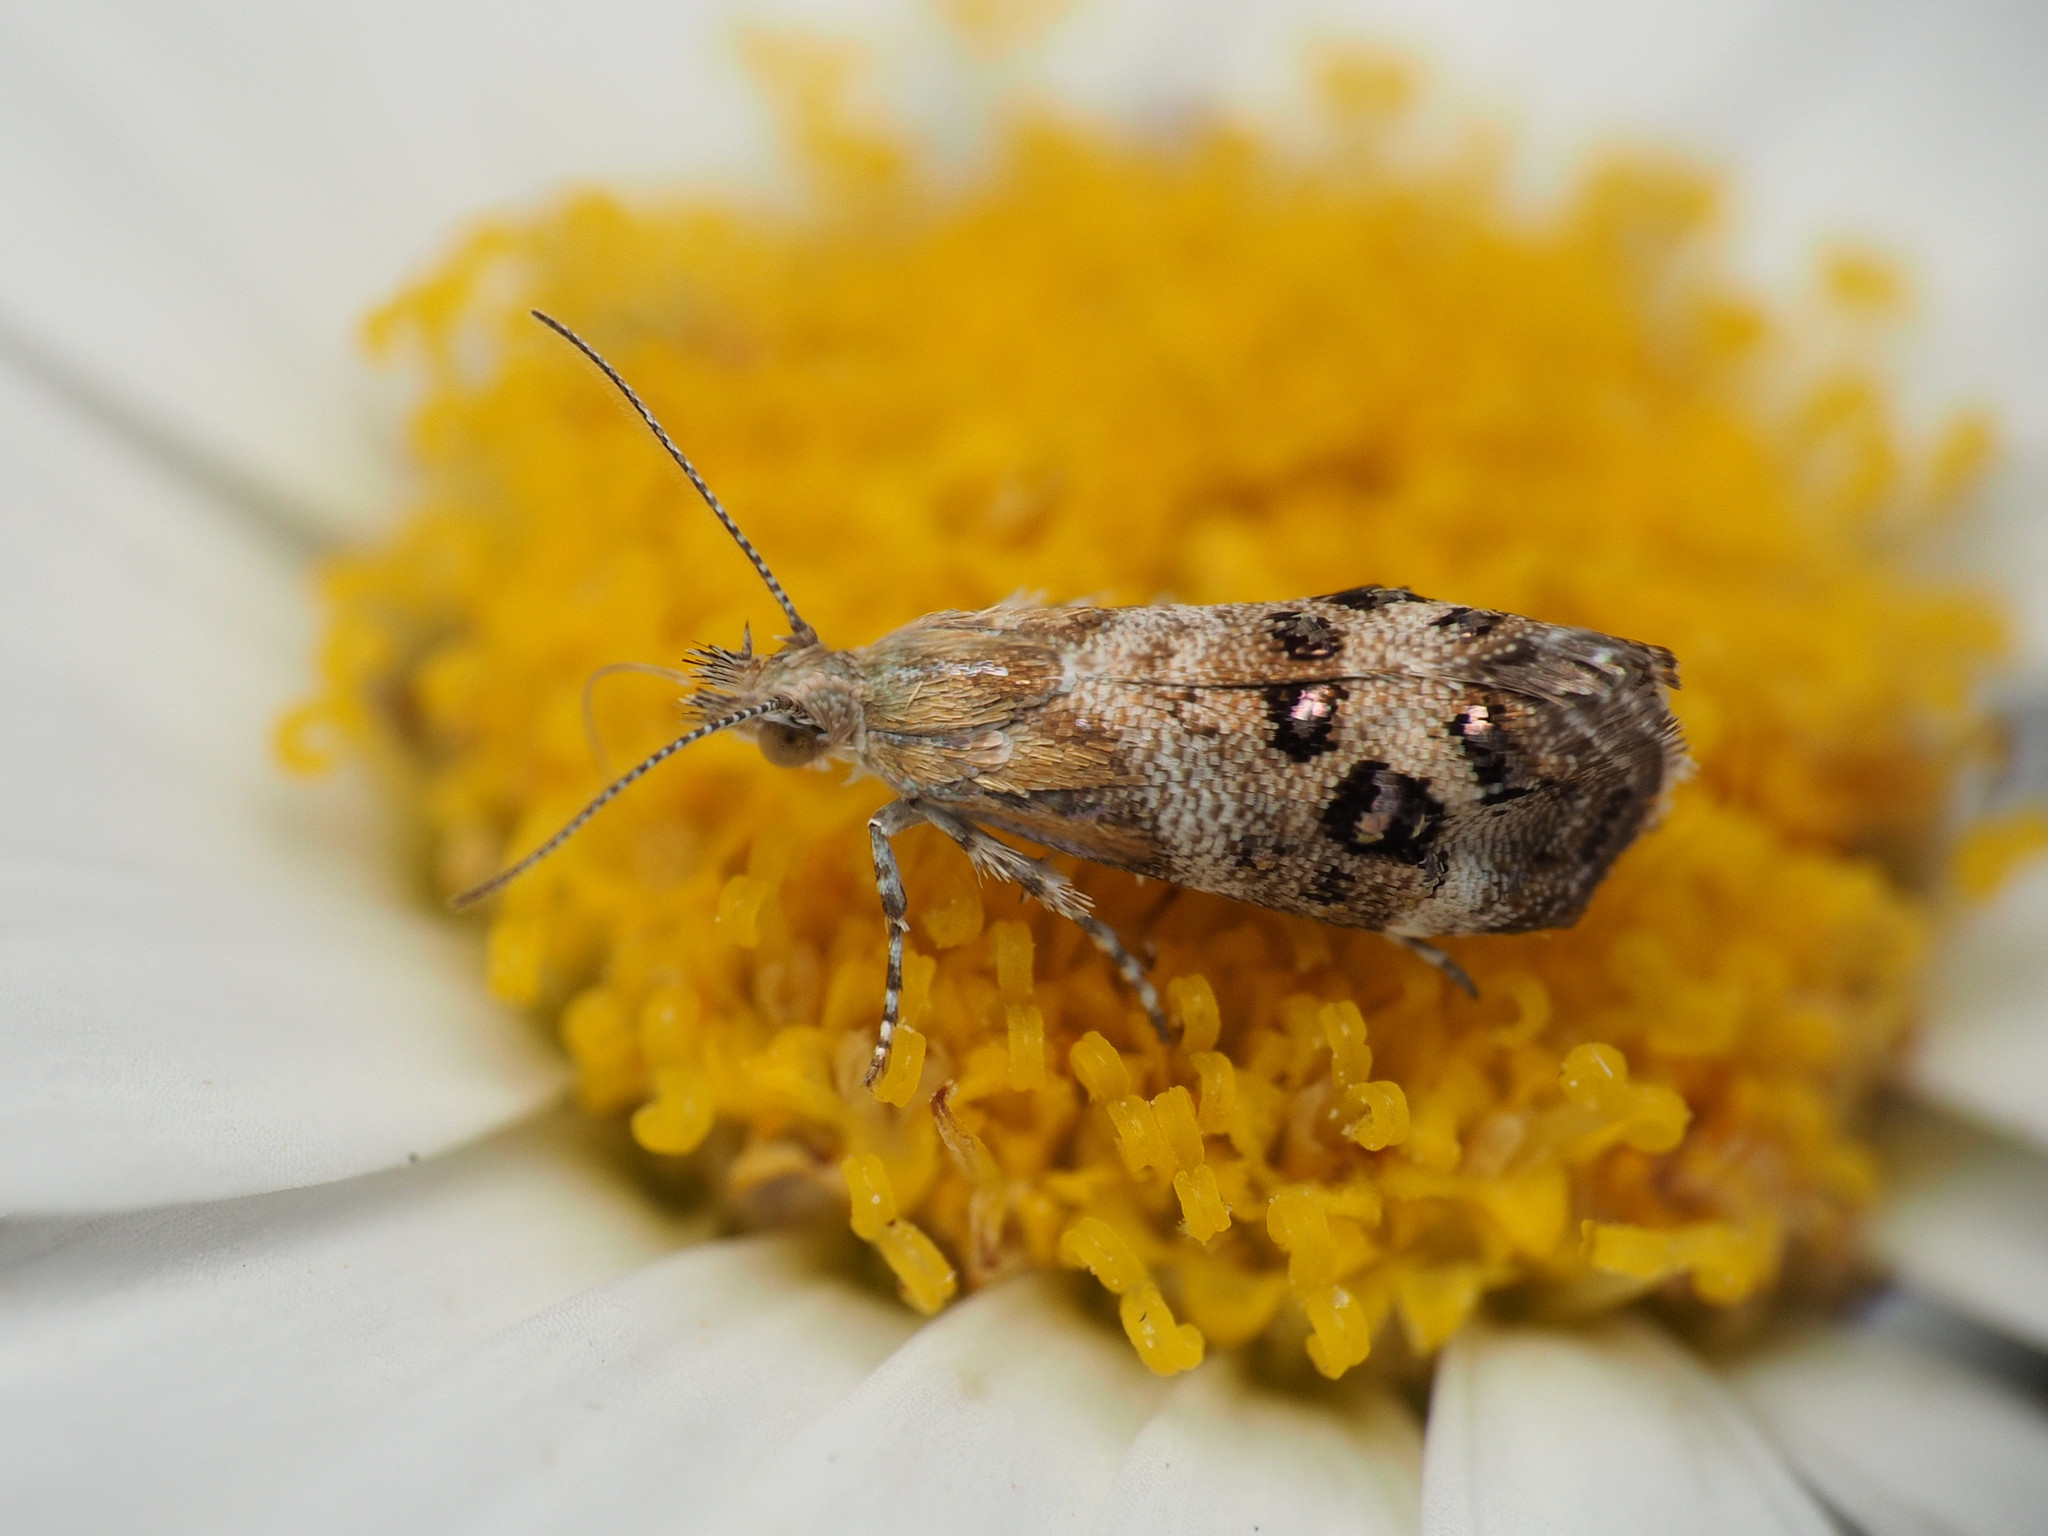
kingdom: Animalia
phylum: Arthropoda
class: Insecta
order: Lepidoptera
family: Choreutidae
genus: Tebenna
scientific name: Tebenna micalis
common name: Vagrant twitcher
